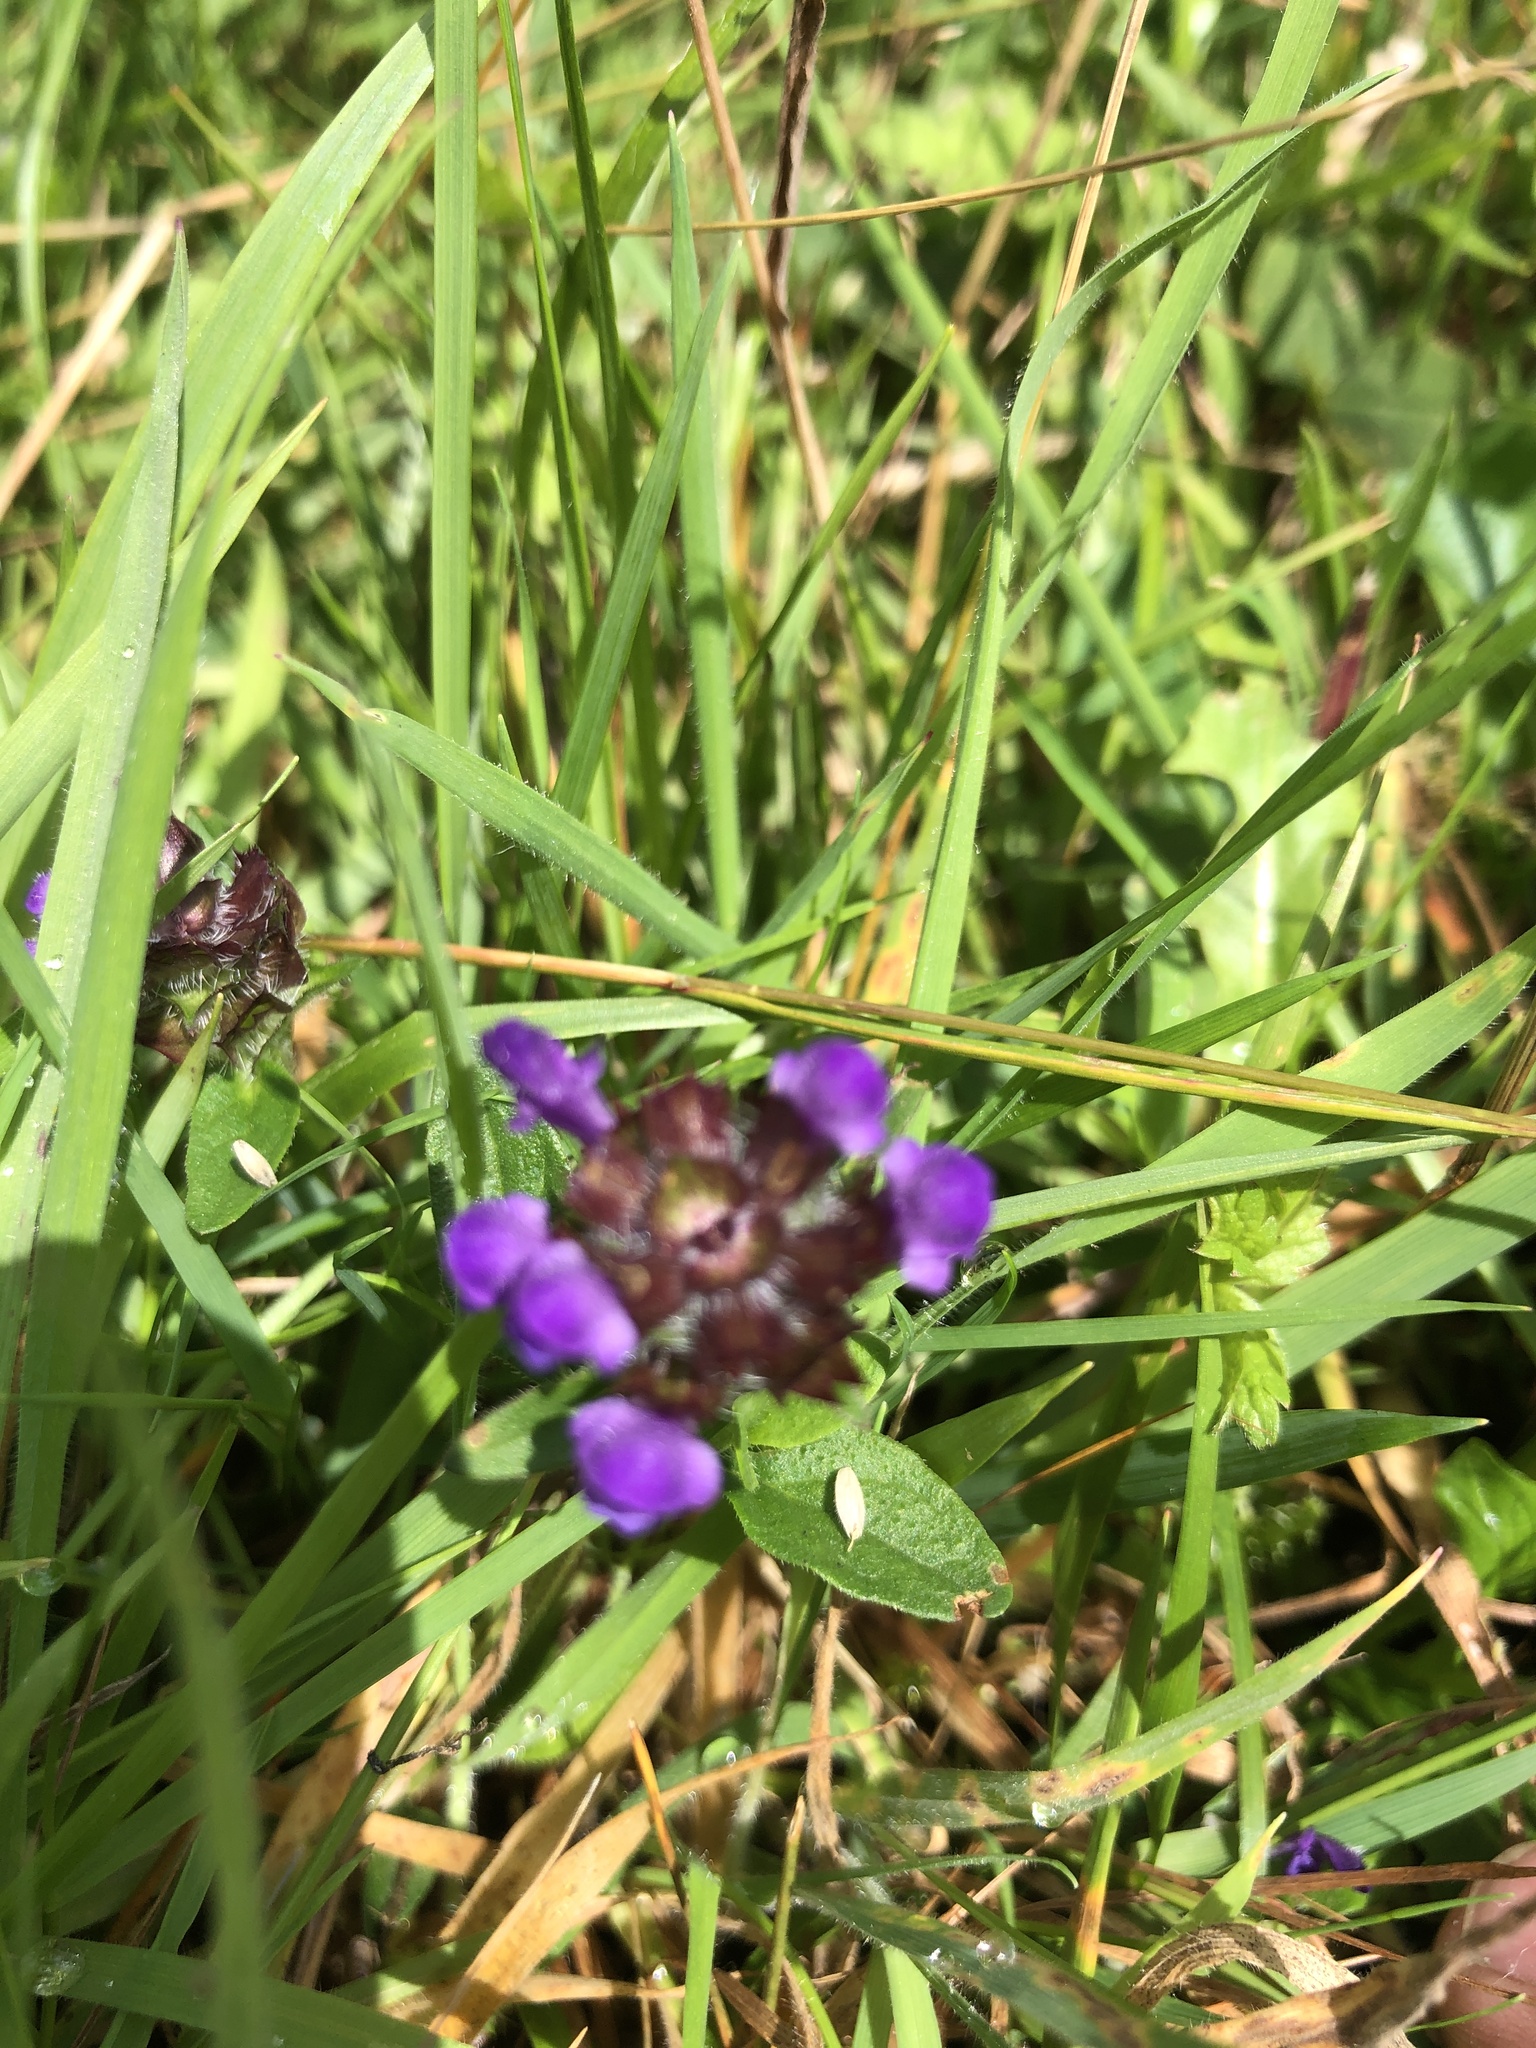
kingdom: Plantae
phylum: Tracheophyta
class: Magnoliopsida
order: Lamiales
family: Lamiaceae
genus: Prunella
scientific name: Prunella vulgaris
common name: Heal-all
